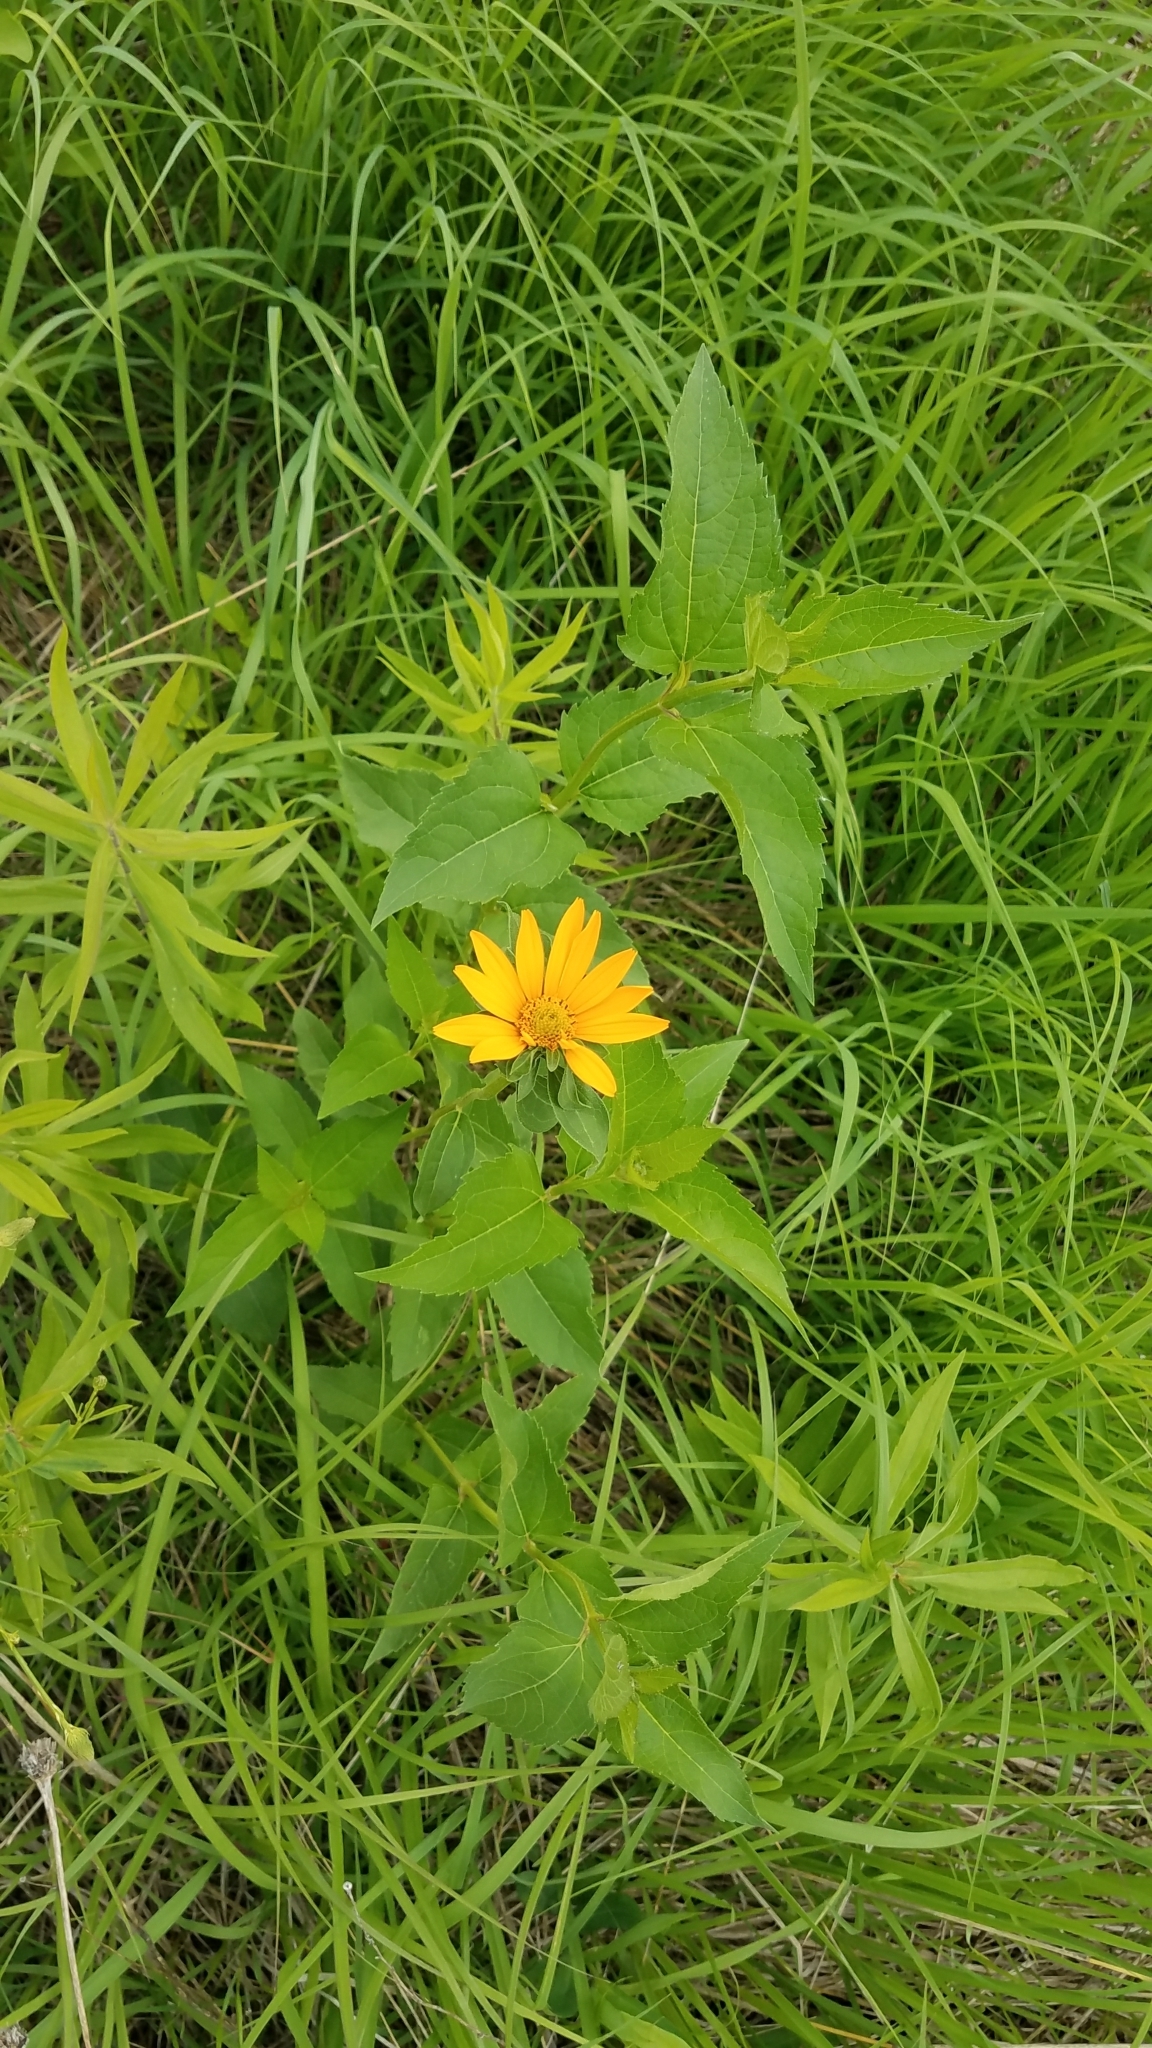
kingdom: Plantae
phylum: Tracheophyta
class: Magnoliopsida
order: Asterales
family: Asteraceae
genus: Heliopsis
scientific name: Heliopsis helianthoides
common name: False sunflower
